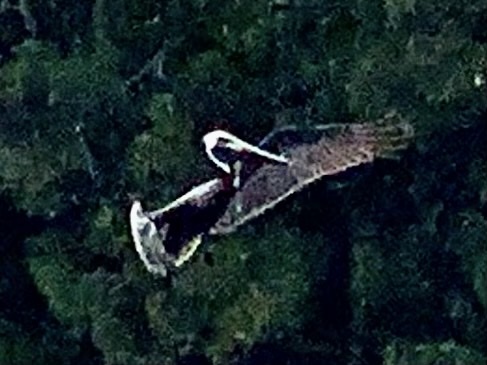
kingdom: Animalia
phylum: Chordata
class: Aves
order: Pelecaniformes
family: Pelecanidae
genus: Pelecanus
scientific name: Pelecanus occidentalis
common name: Brown pelican
